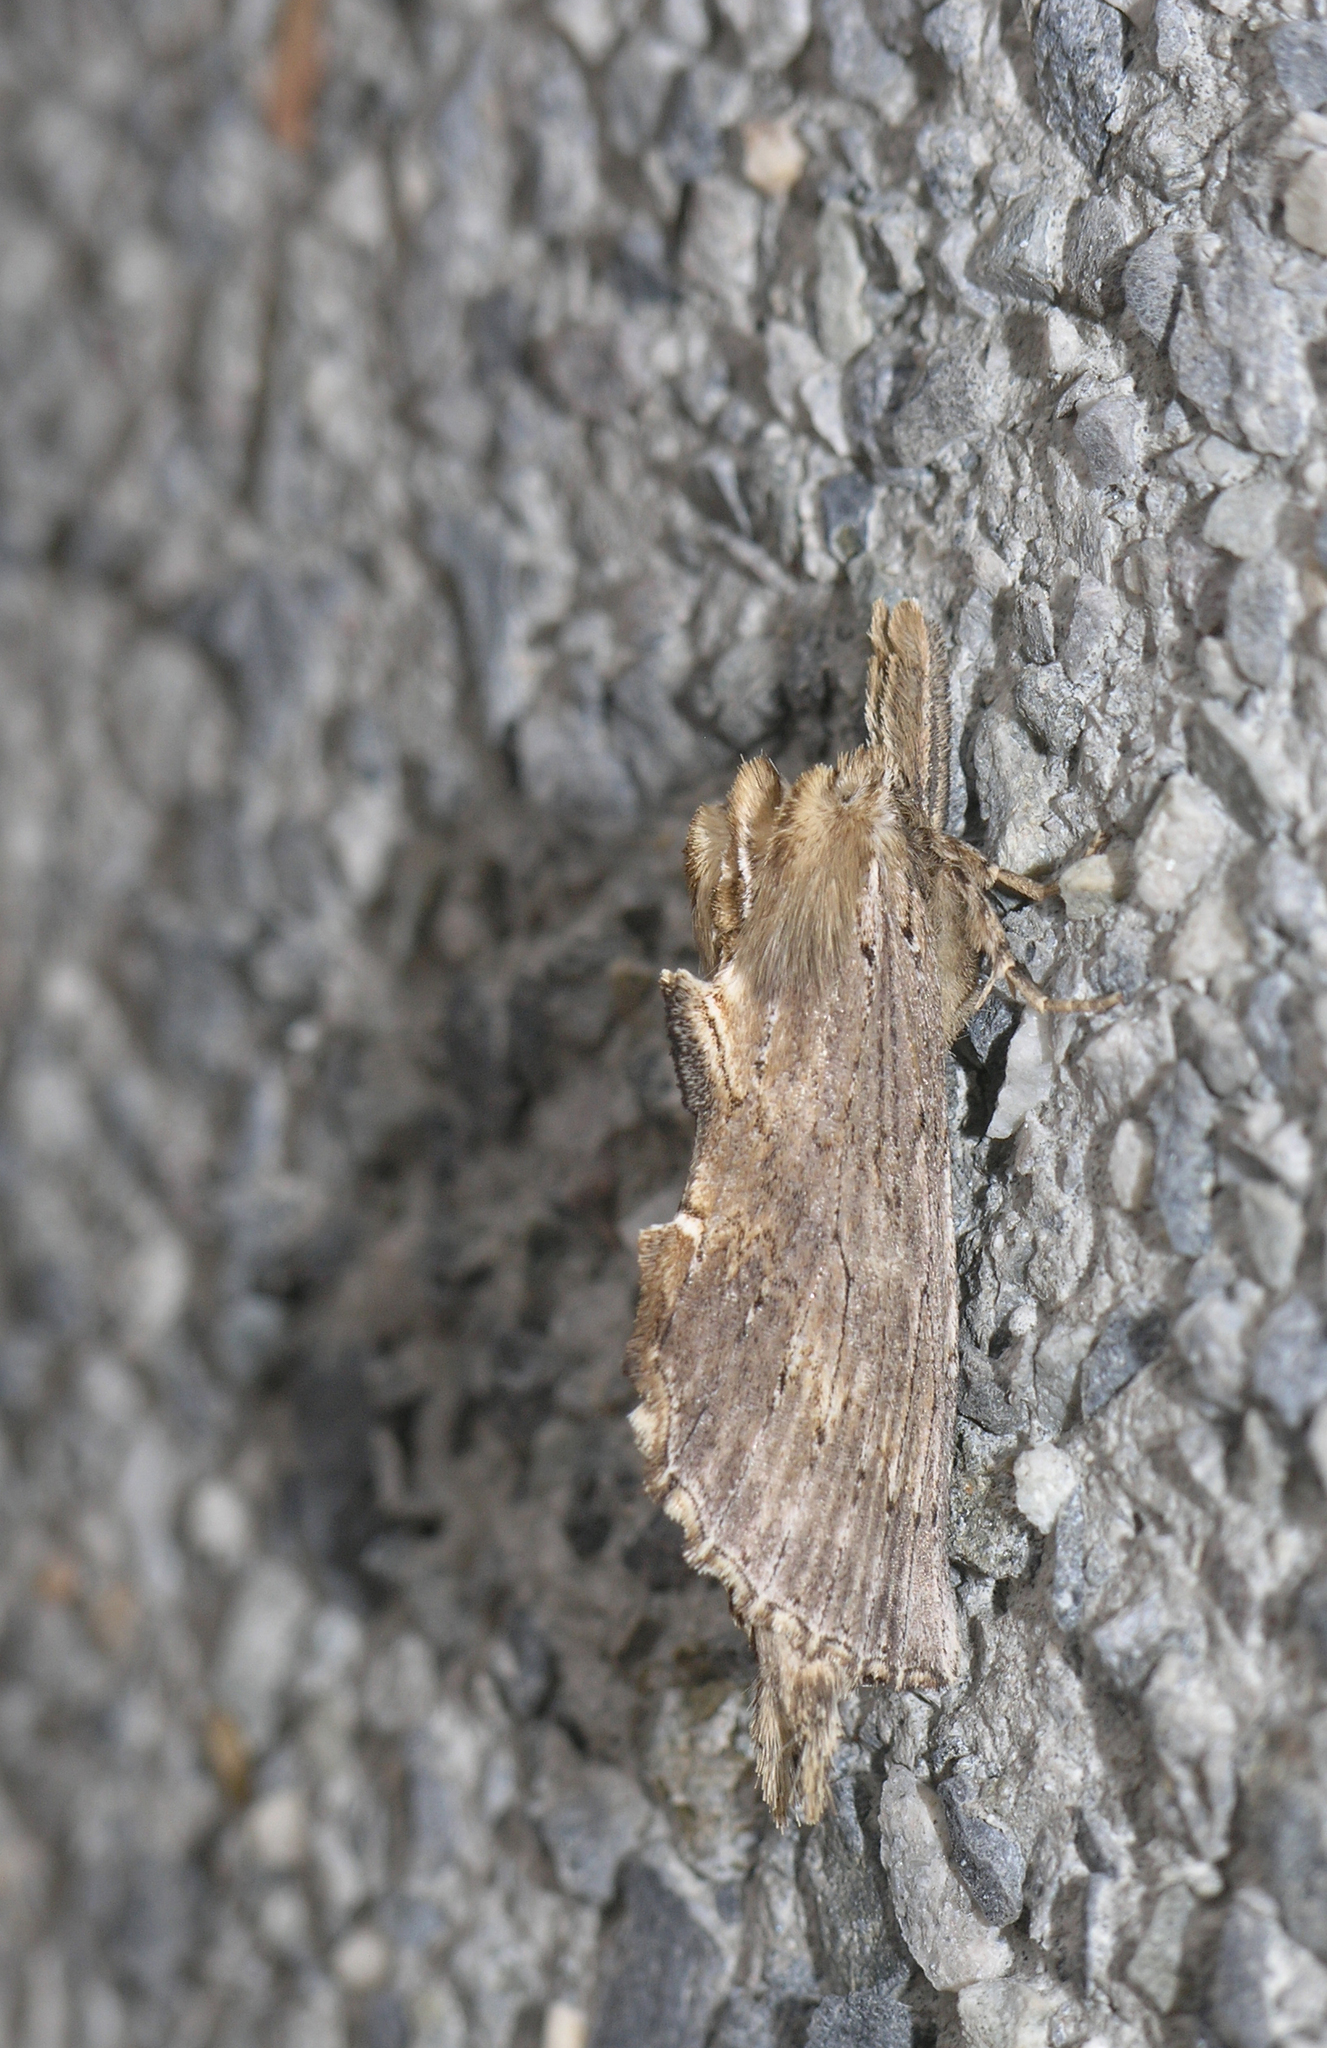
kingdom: Animalia
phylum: Arthropoda
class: Insecta
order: Lepidoptera
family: Notodontidae
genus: Pterostoma
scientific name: Pterostoma palpina
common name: Pale prominent
